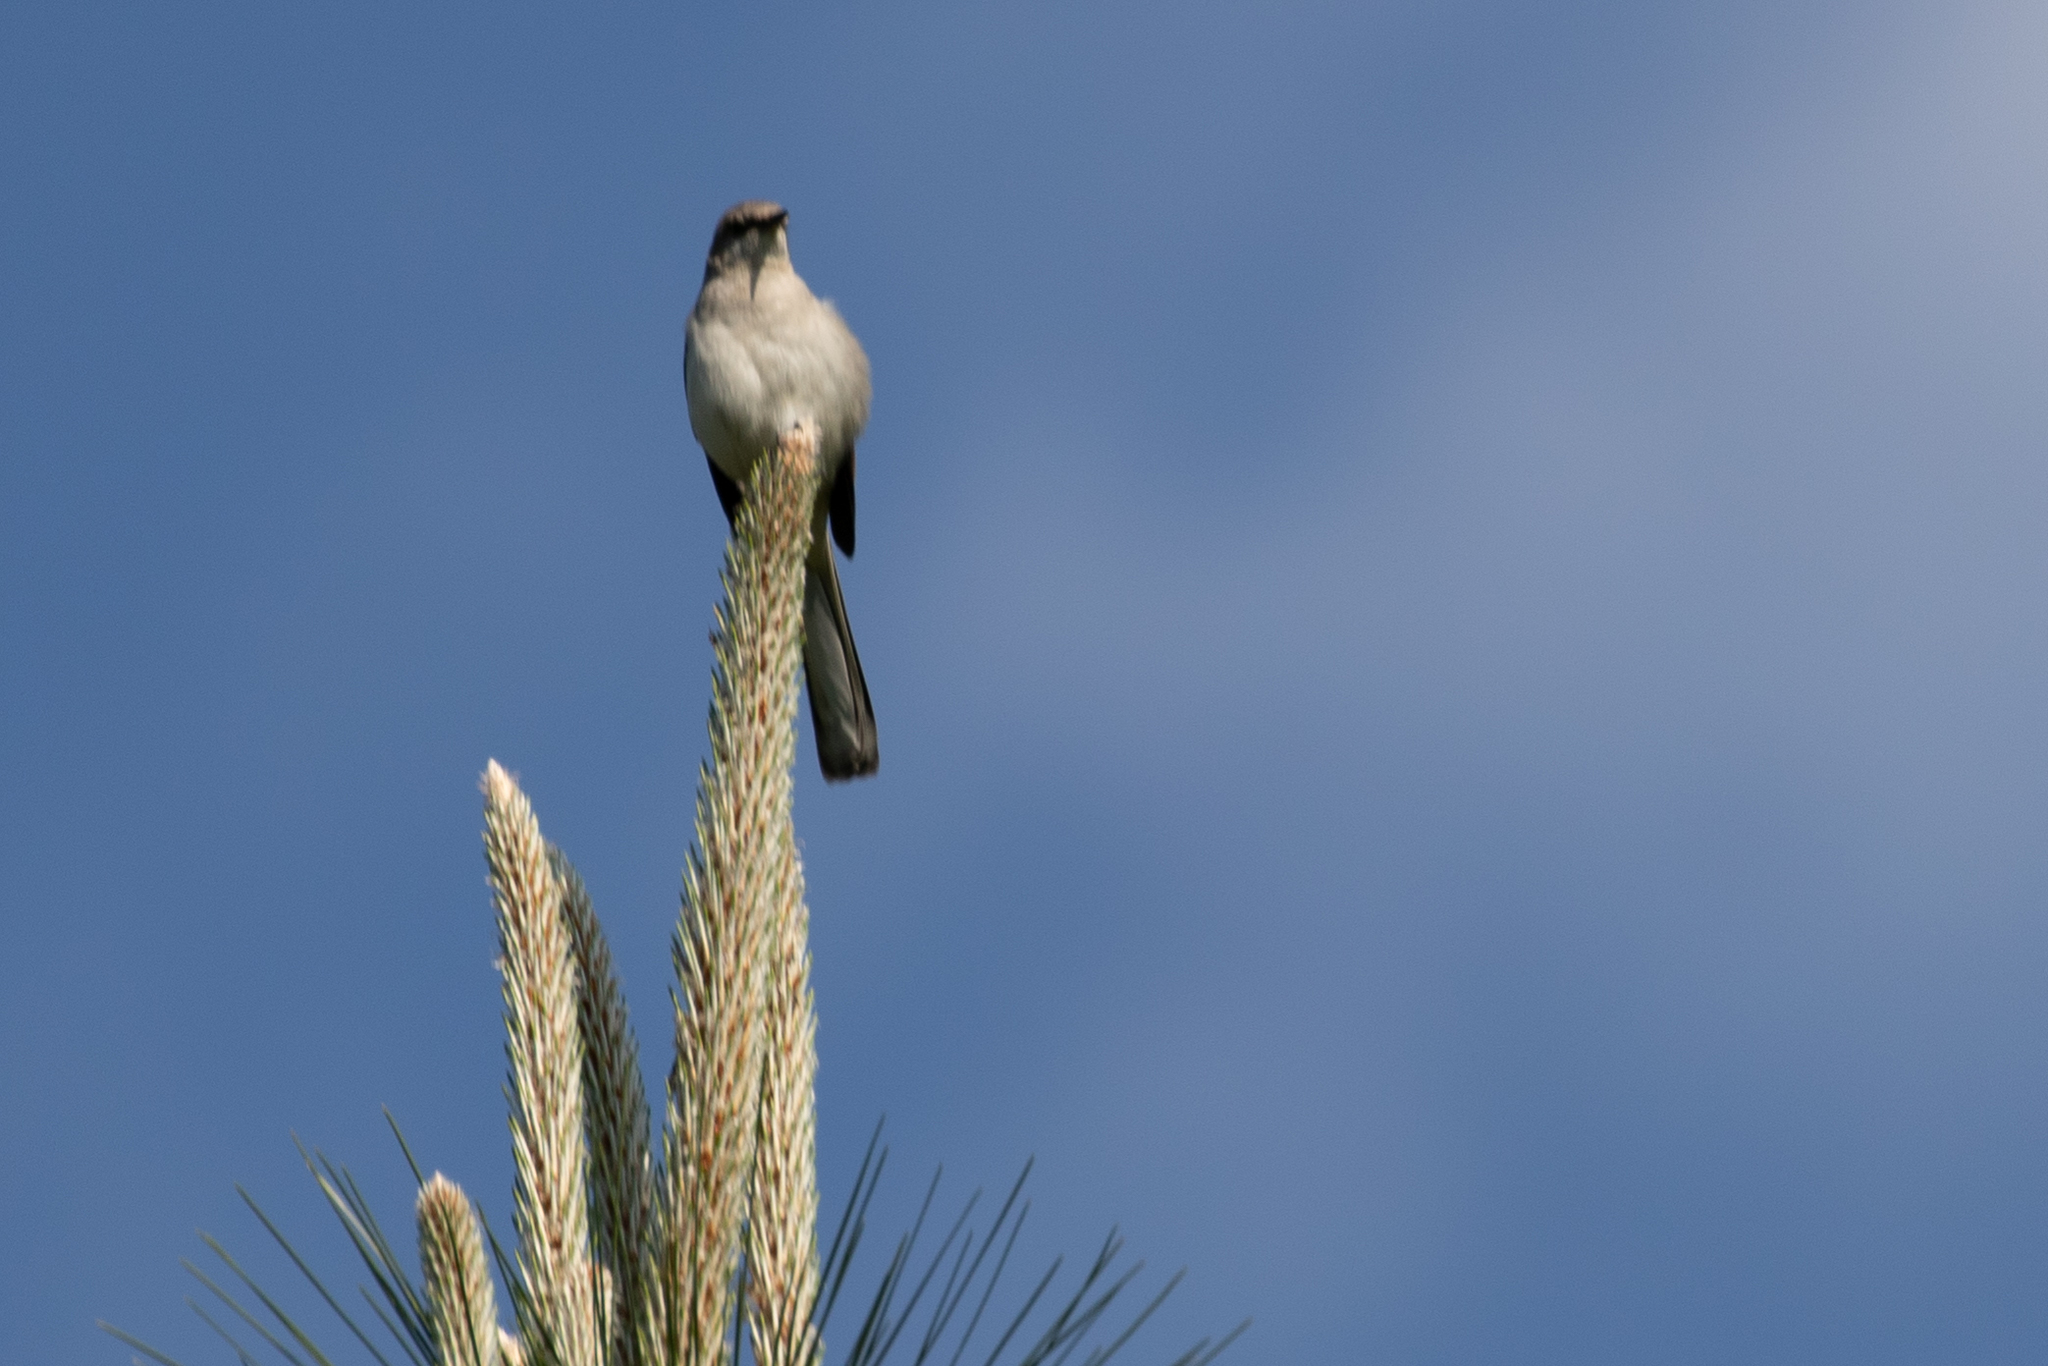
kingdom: Animalia
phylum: Chordata
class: Aves
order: Passeriformes
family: Mimidae
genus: Mimus
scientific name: Mimus polyglottos
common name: Northern mockingbird
